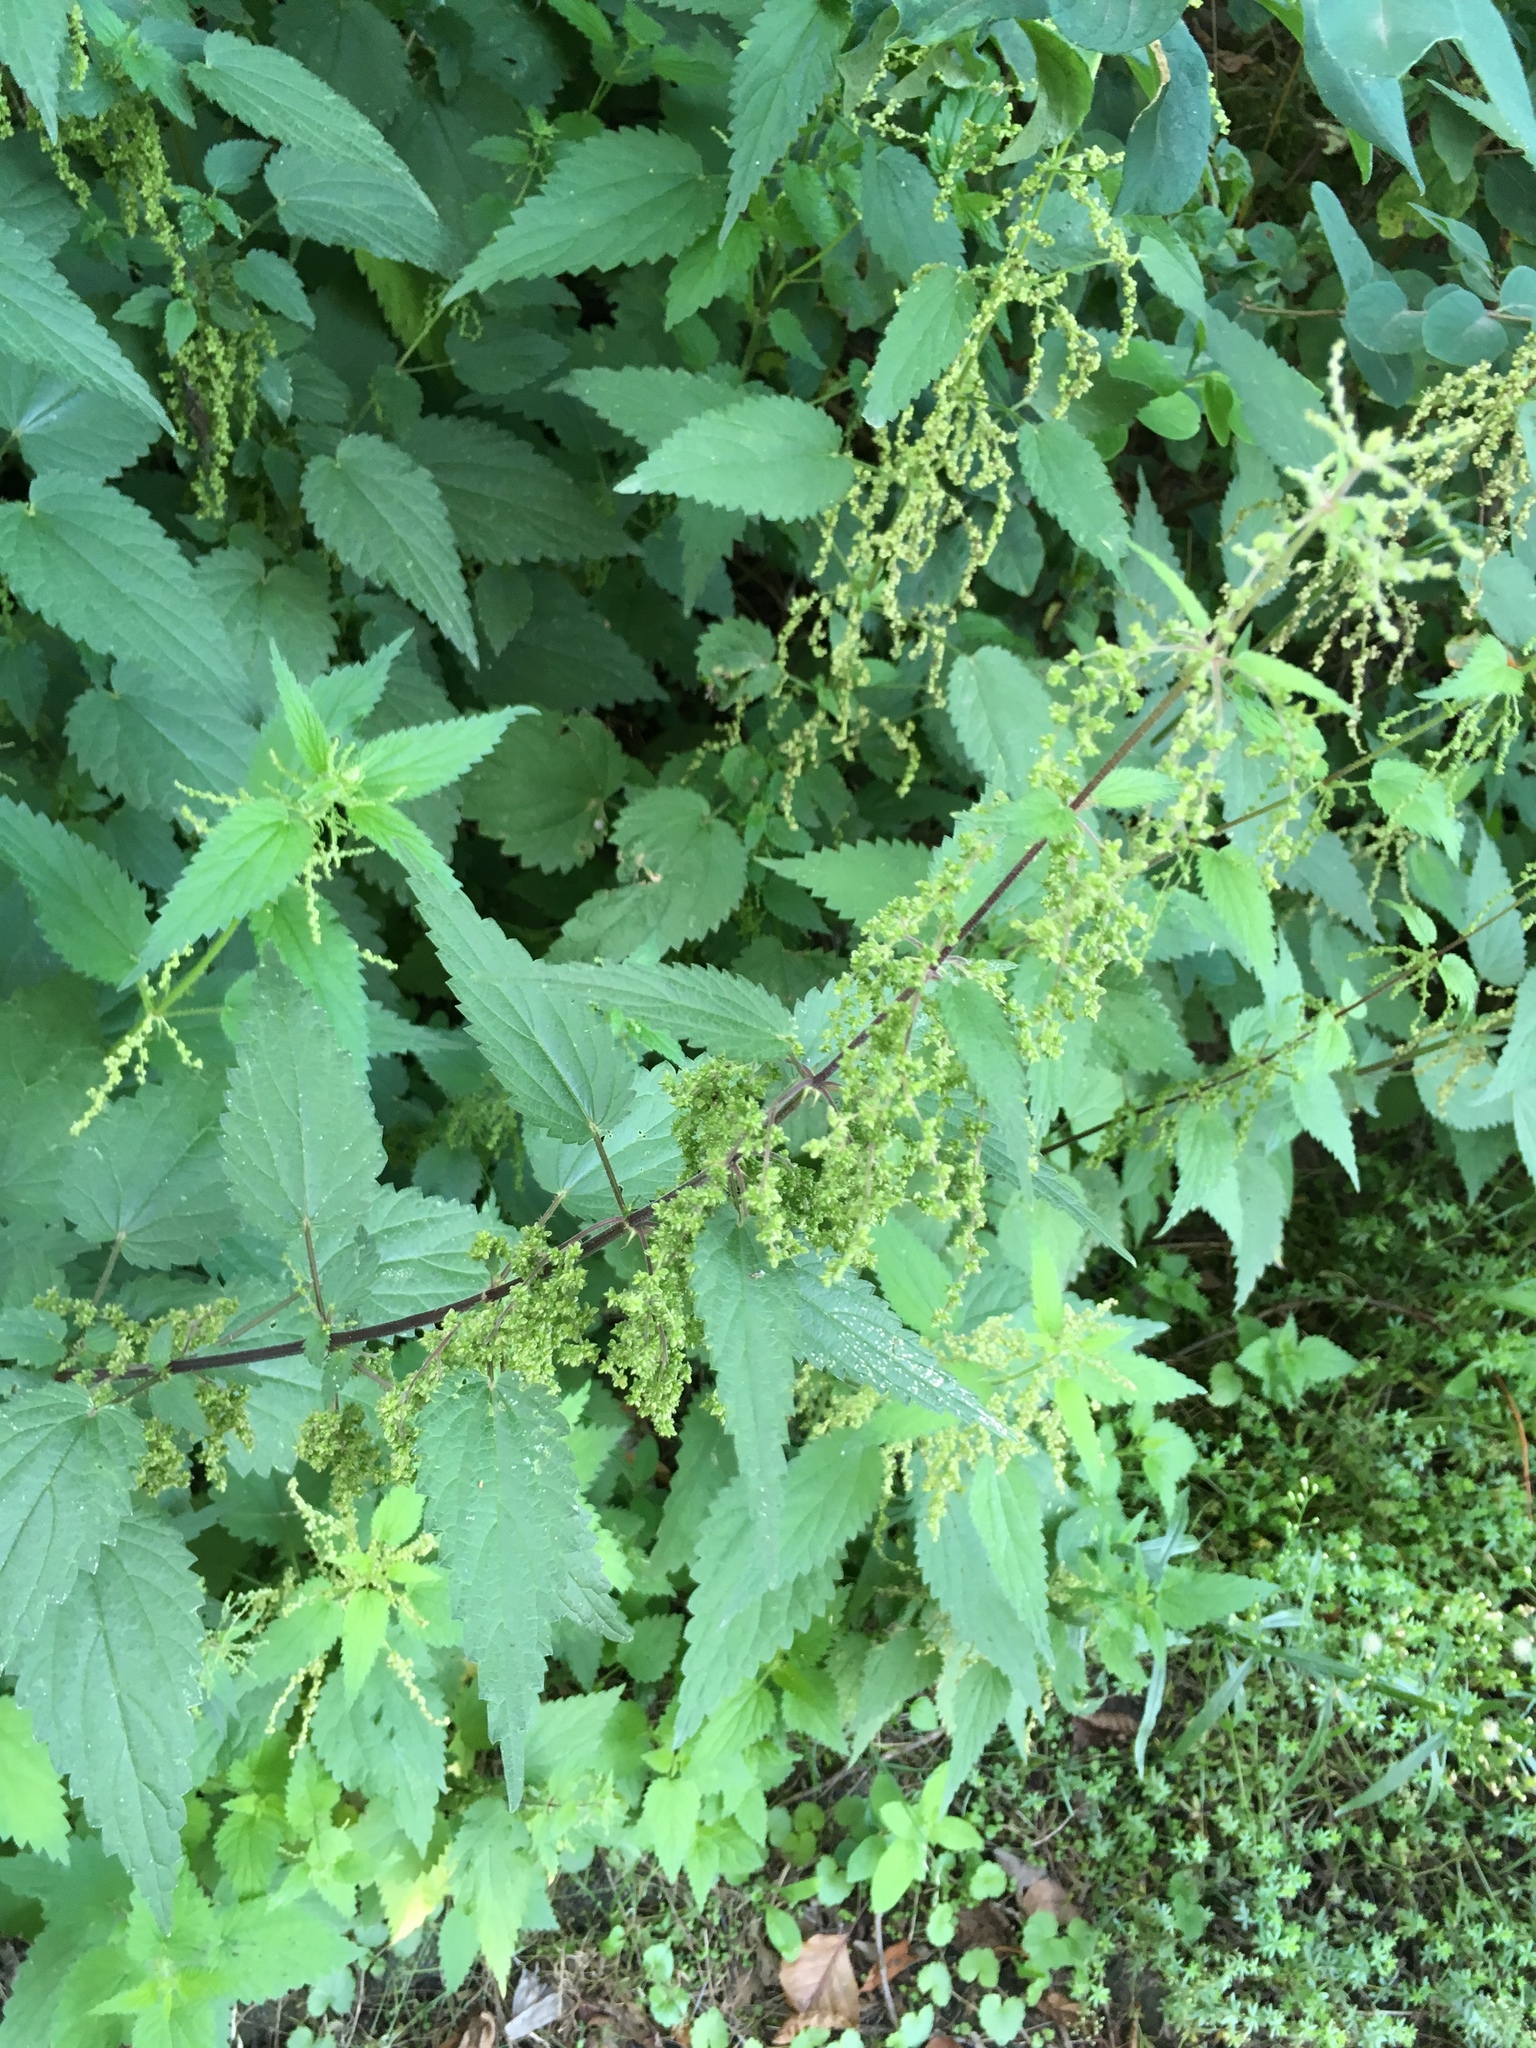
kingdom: Plantae
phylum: Tracheophyta
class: Magnoliopsida
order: Rosales
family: Urticaceae
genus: Urtica
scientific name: Urtica dioica
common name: Common nettle
